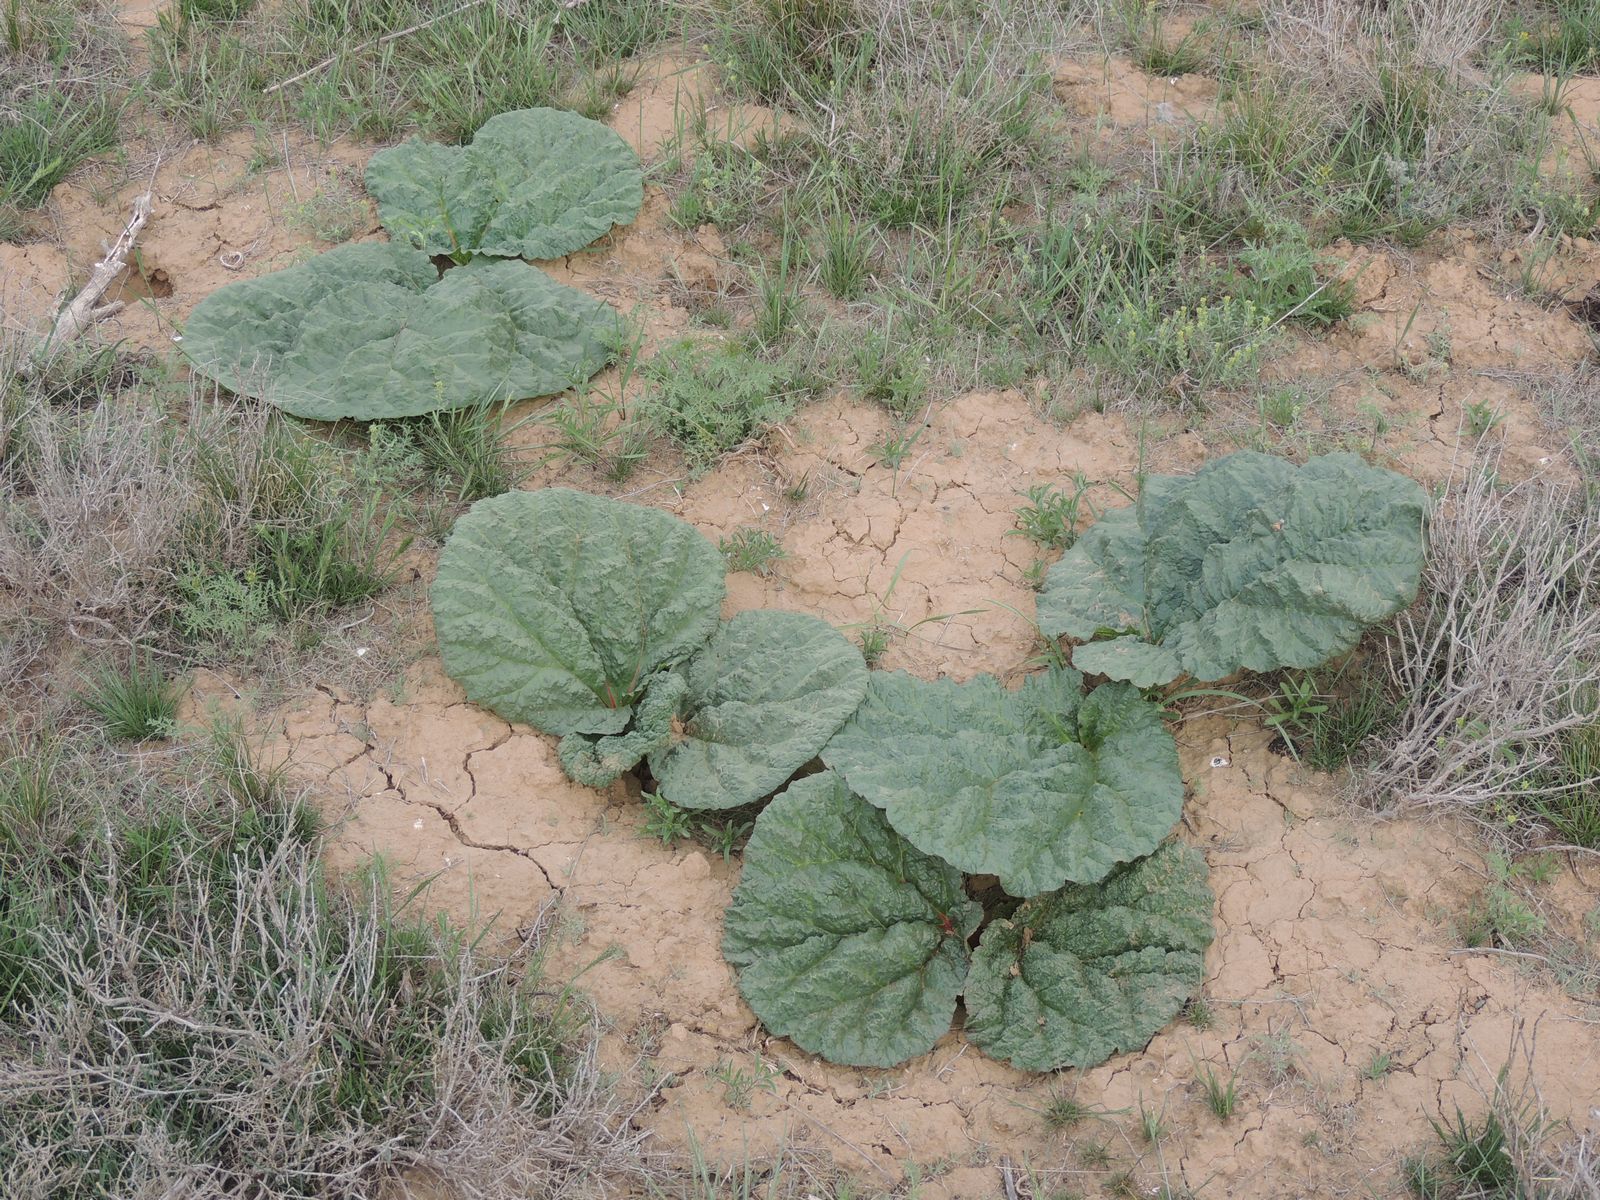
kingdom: Plantae
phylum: Tracheophyta
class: Magnoliopsida
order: Caryophyllales
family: Polygonaceae
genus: Rheum
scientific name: Rheum tataricum
